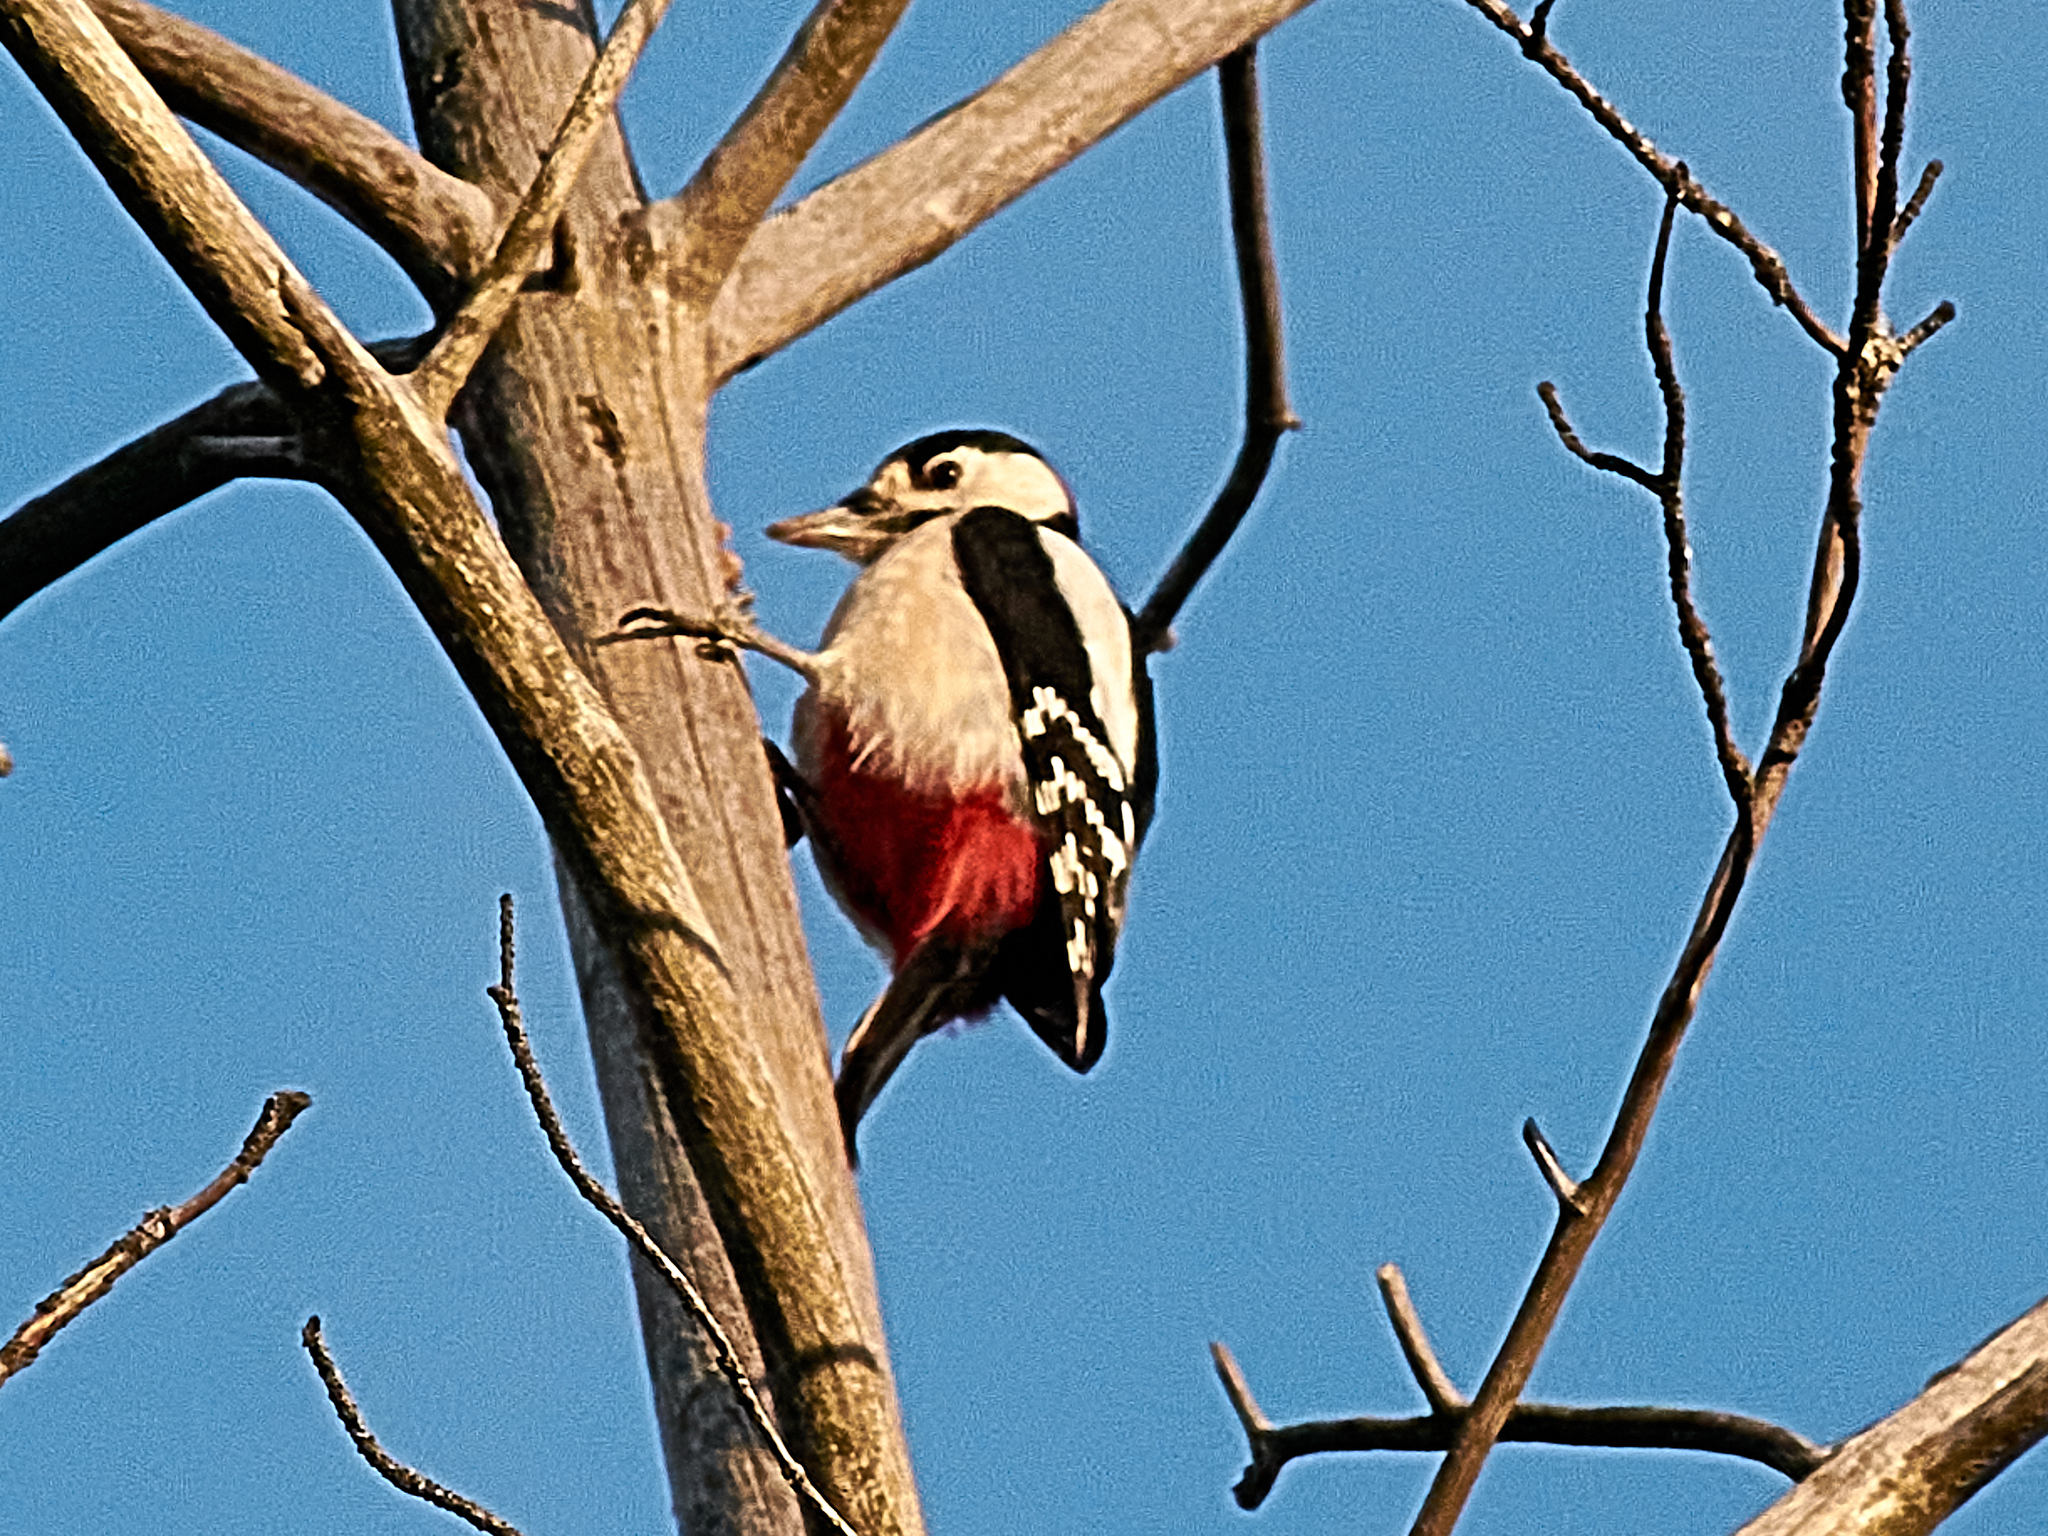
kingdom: Animalia
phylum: Chordata
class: Aves
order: Piciformes
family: Picidae
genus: Dendrocopos
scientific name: Dendrocopos major
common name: Great spotted woodpecker
